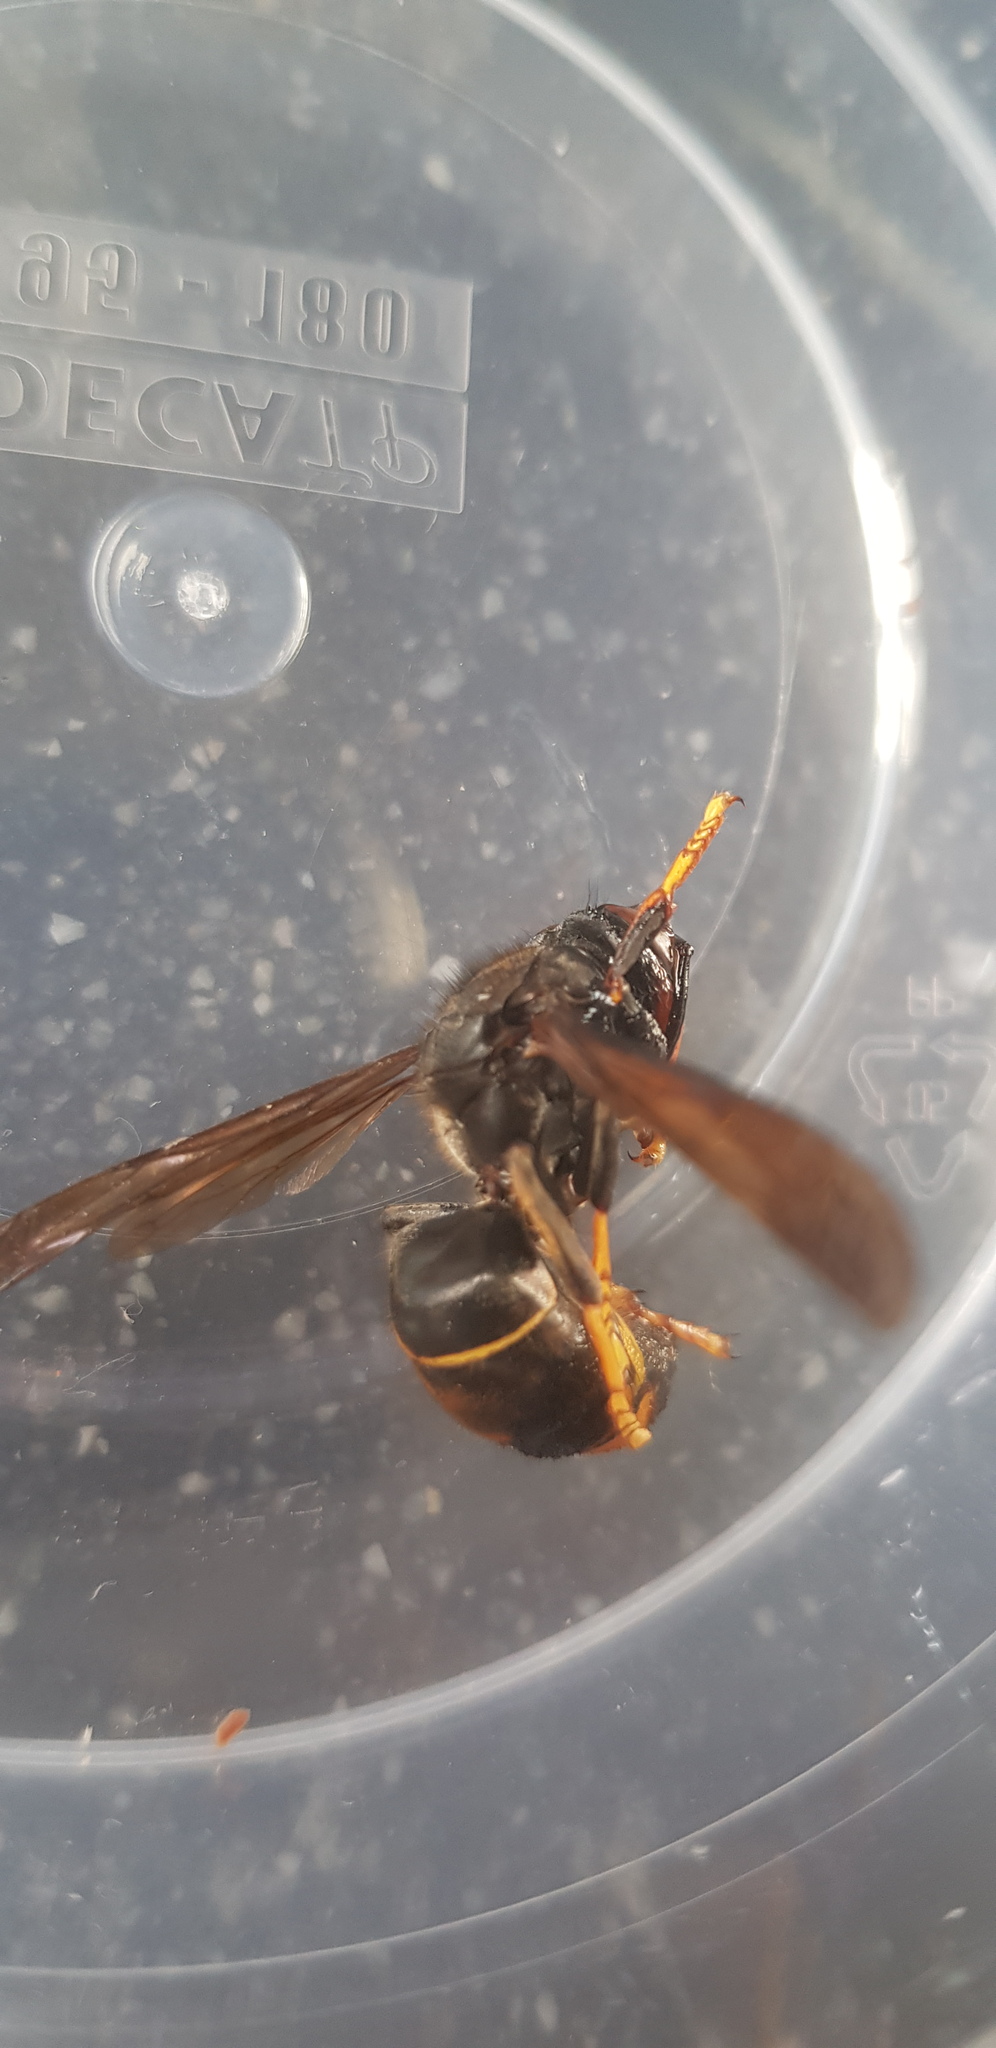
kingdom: Animalia
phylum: Arthropoda
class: Insecta
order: Hymenoptera
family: Vespidae
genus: Vespa
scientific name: Vespa velutina
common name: Asian hornet
